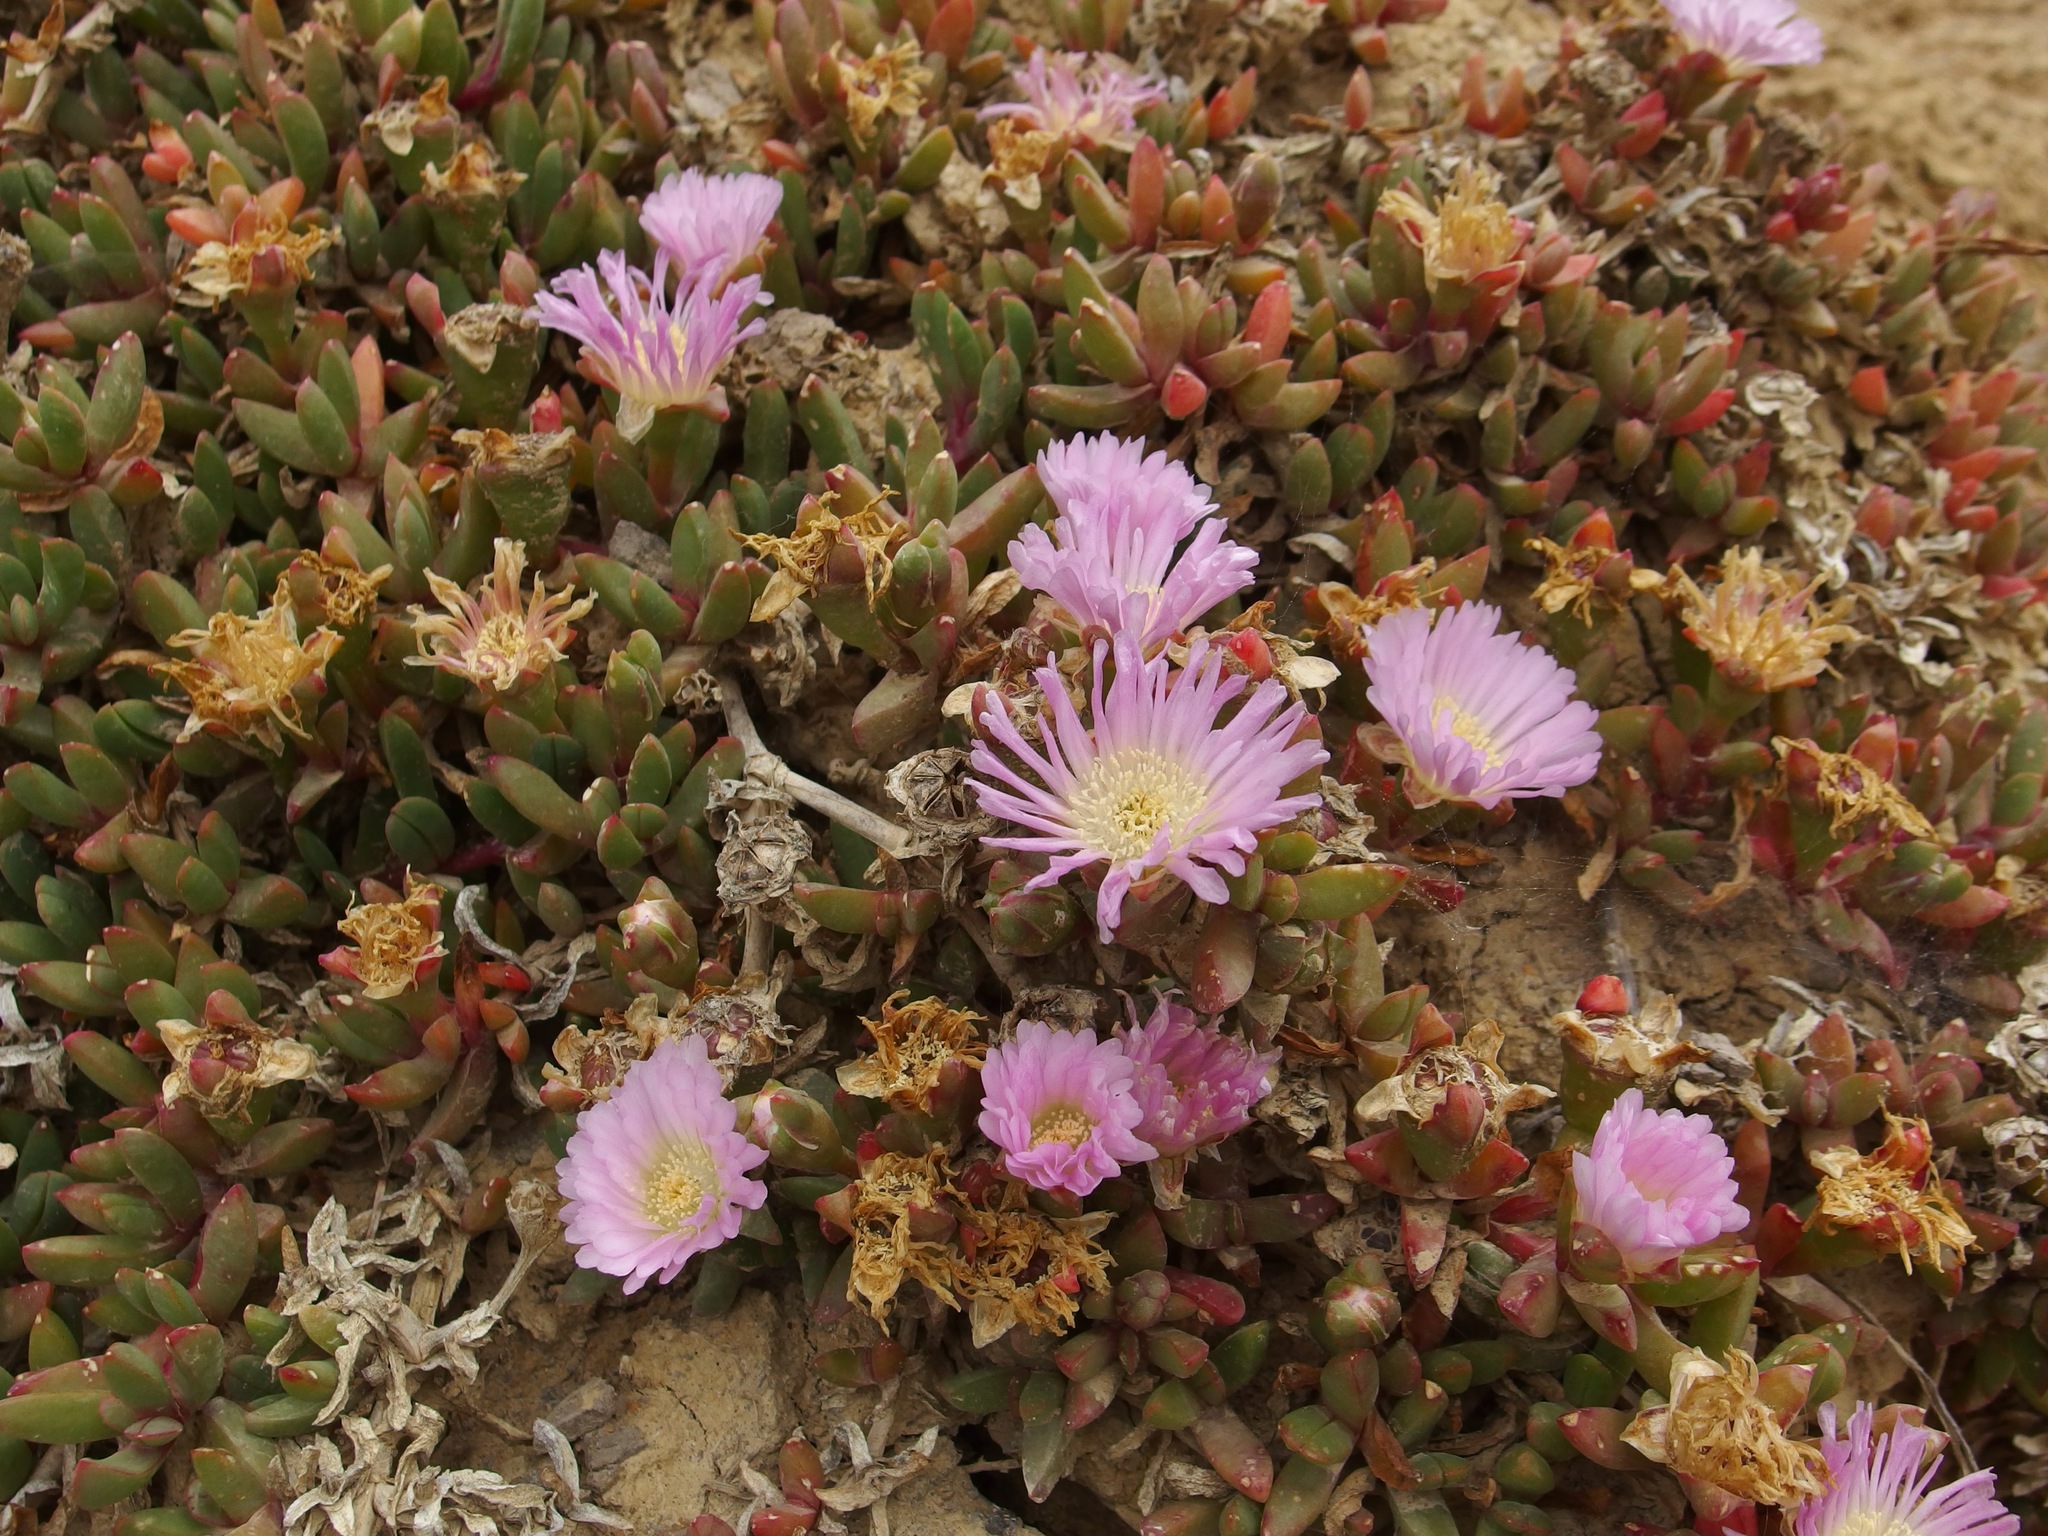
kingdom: Plantae
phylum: Tracheophyta
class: Magnoliopsida
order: Caryophyllales
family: Aizoaceae
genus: Disphyma
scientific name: Disphyma australe
